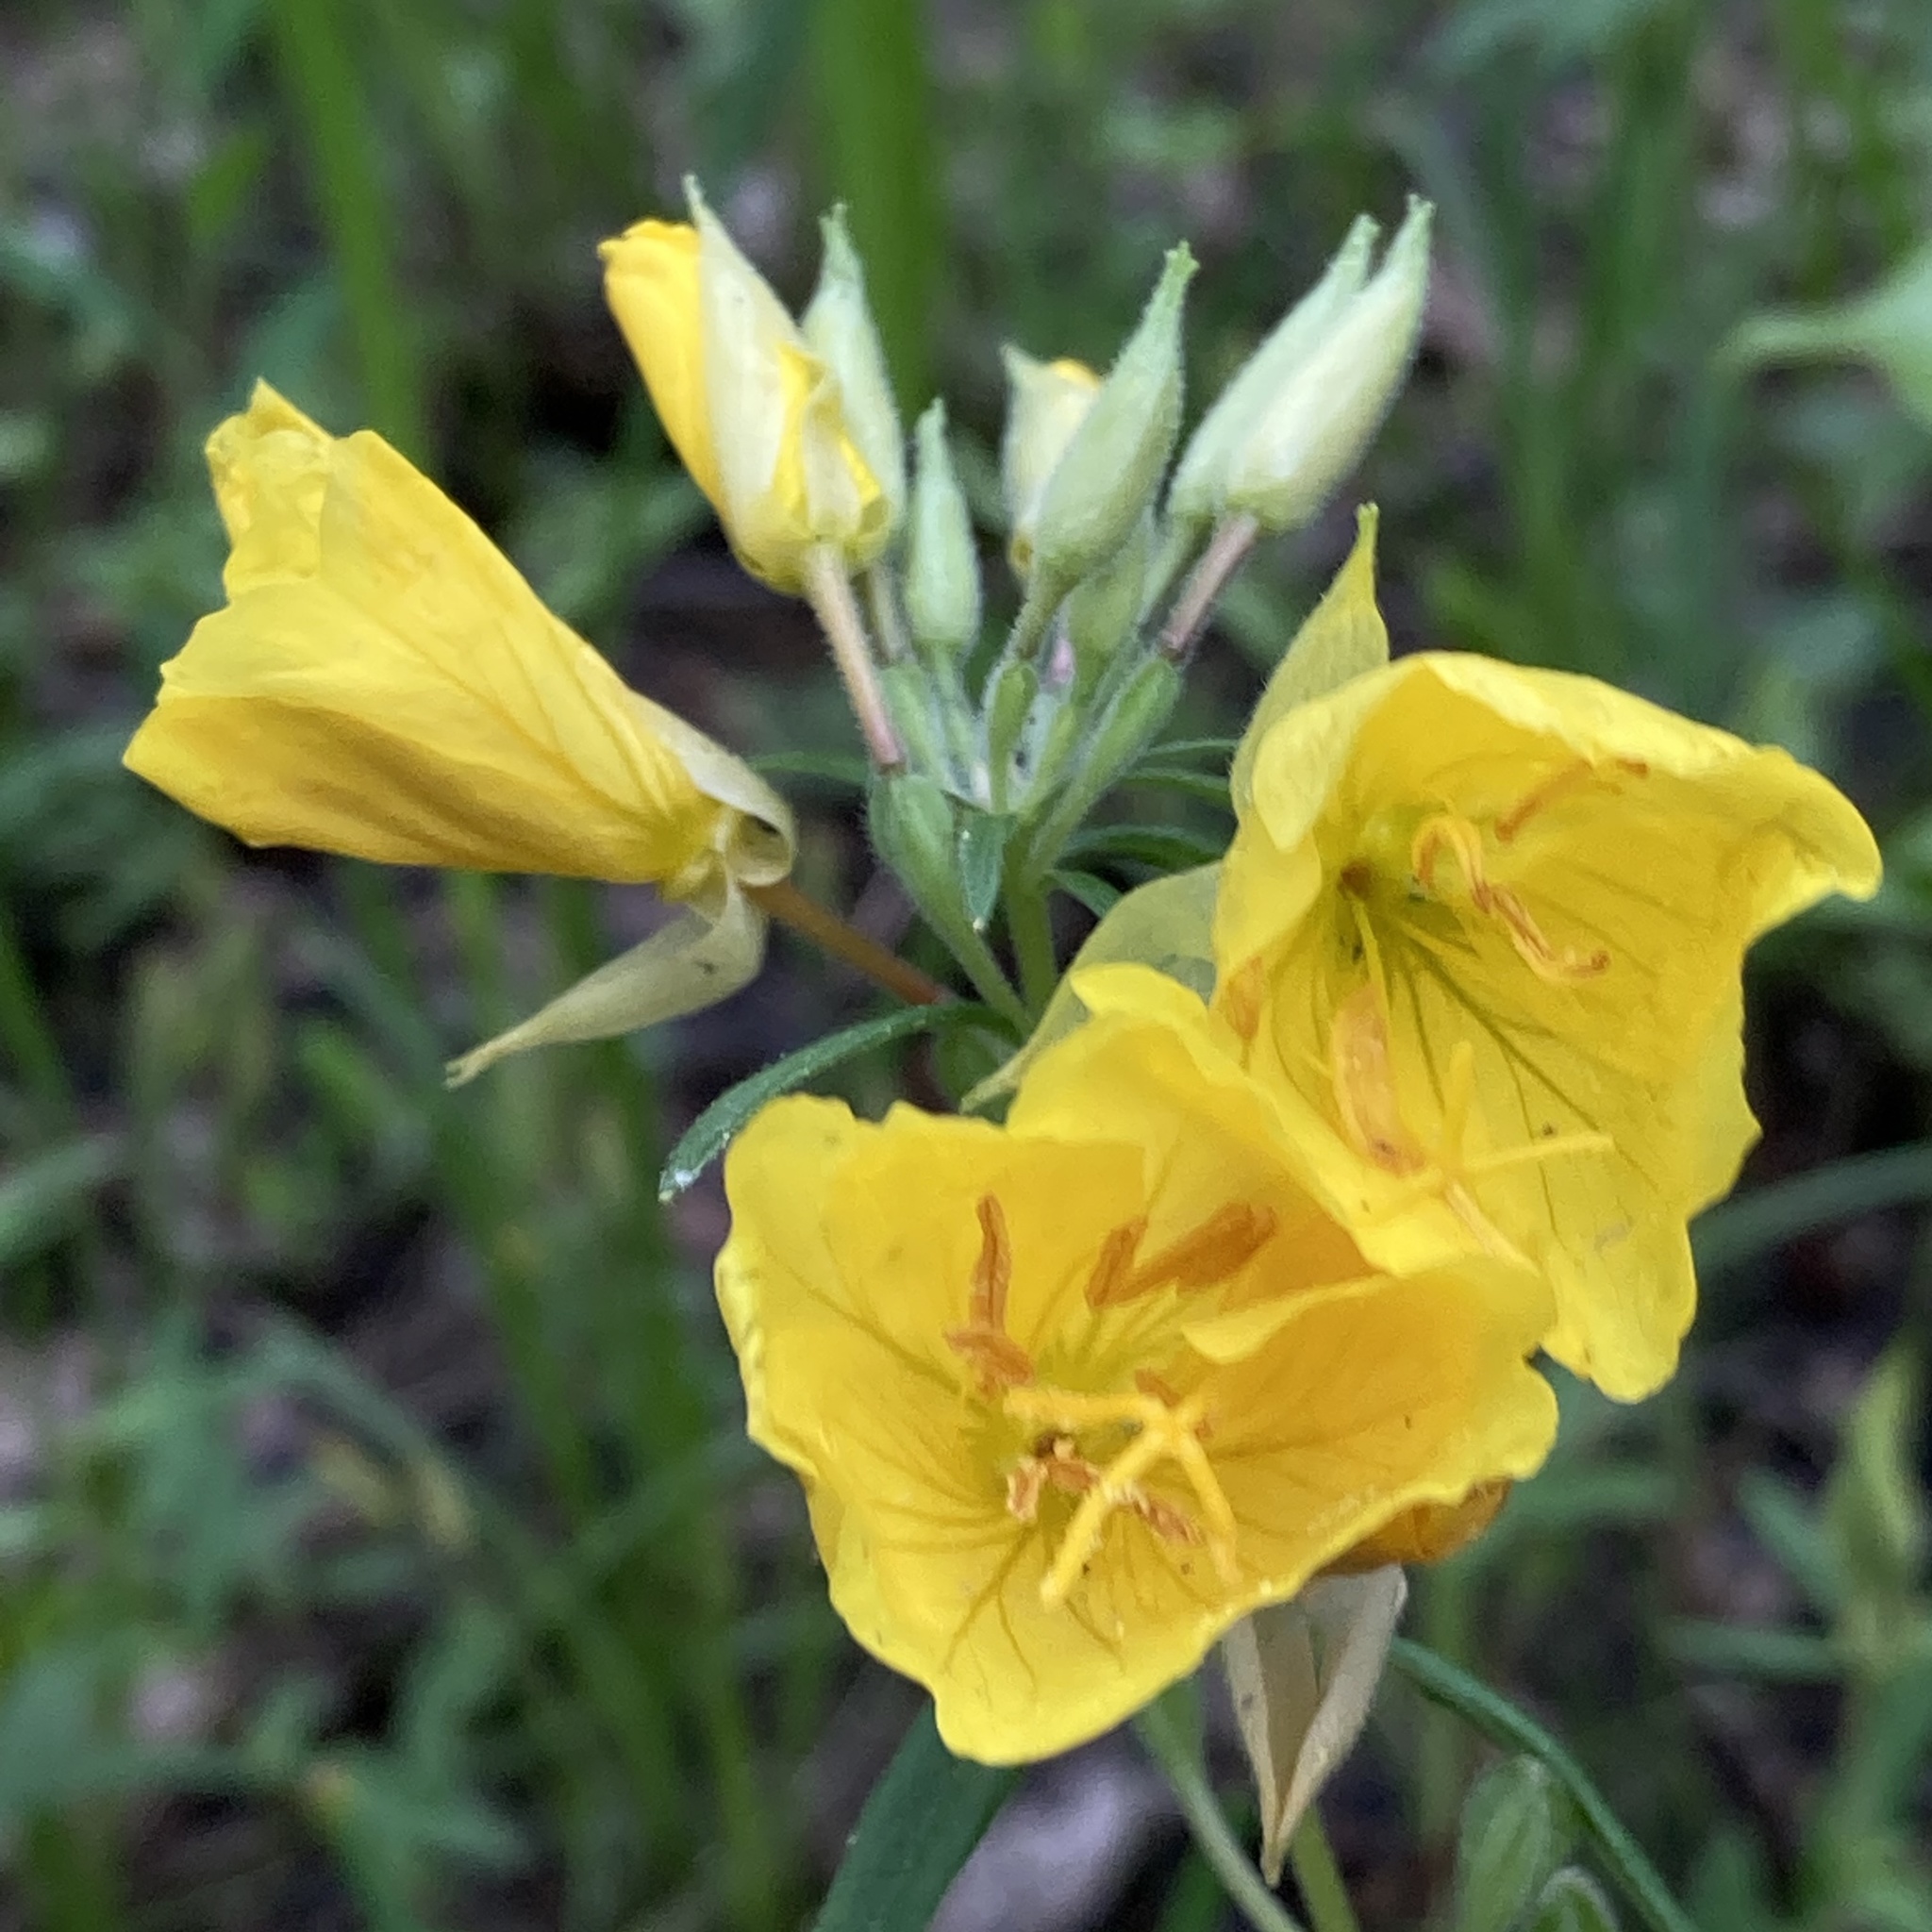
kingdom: Plantae
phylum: Tracheophyta
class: Magnoliopsida
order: Myrtales
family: Onagraceae
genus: Oenothera
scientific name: Oenothera fruticosa
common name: Southern sundrops
